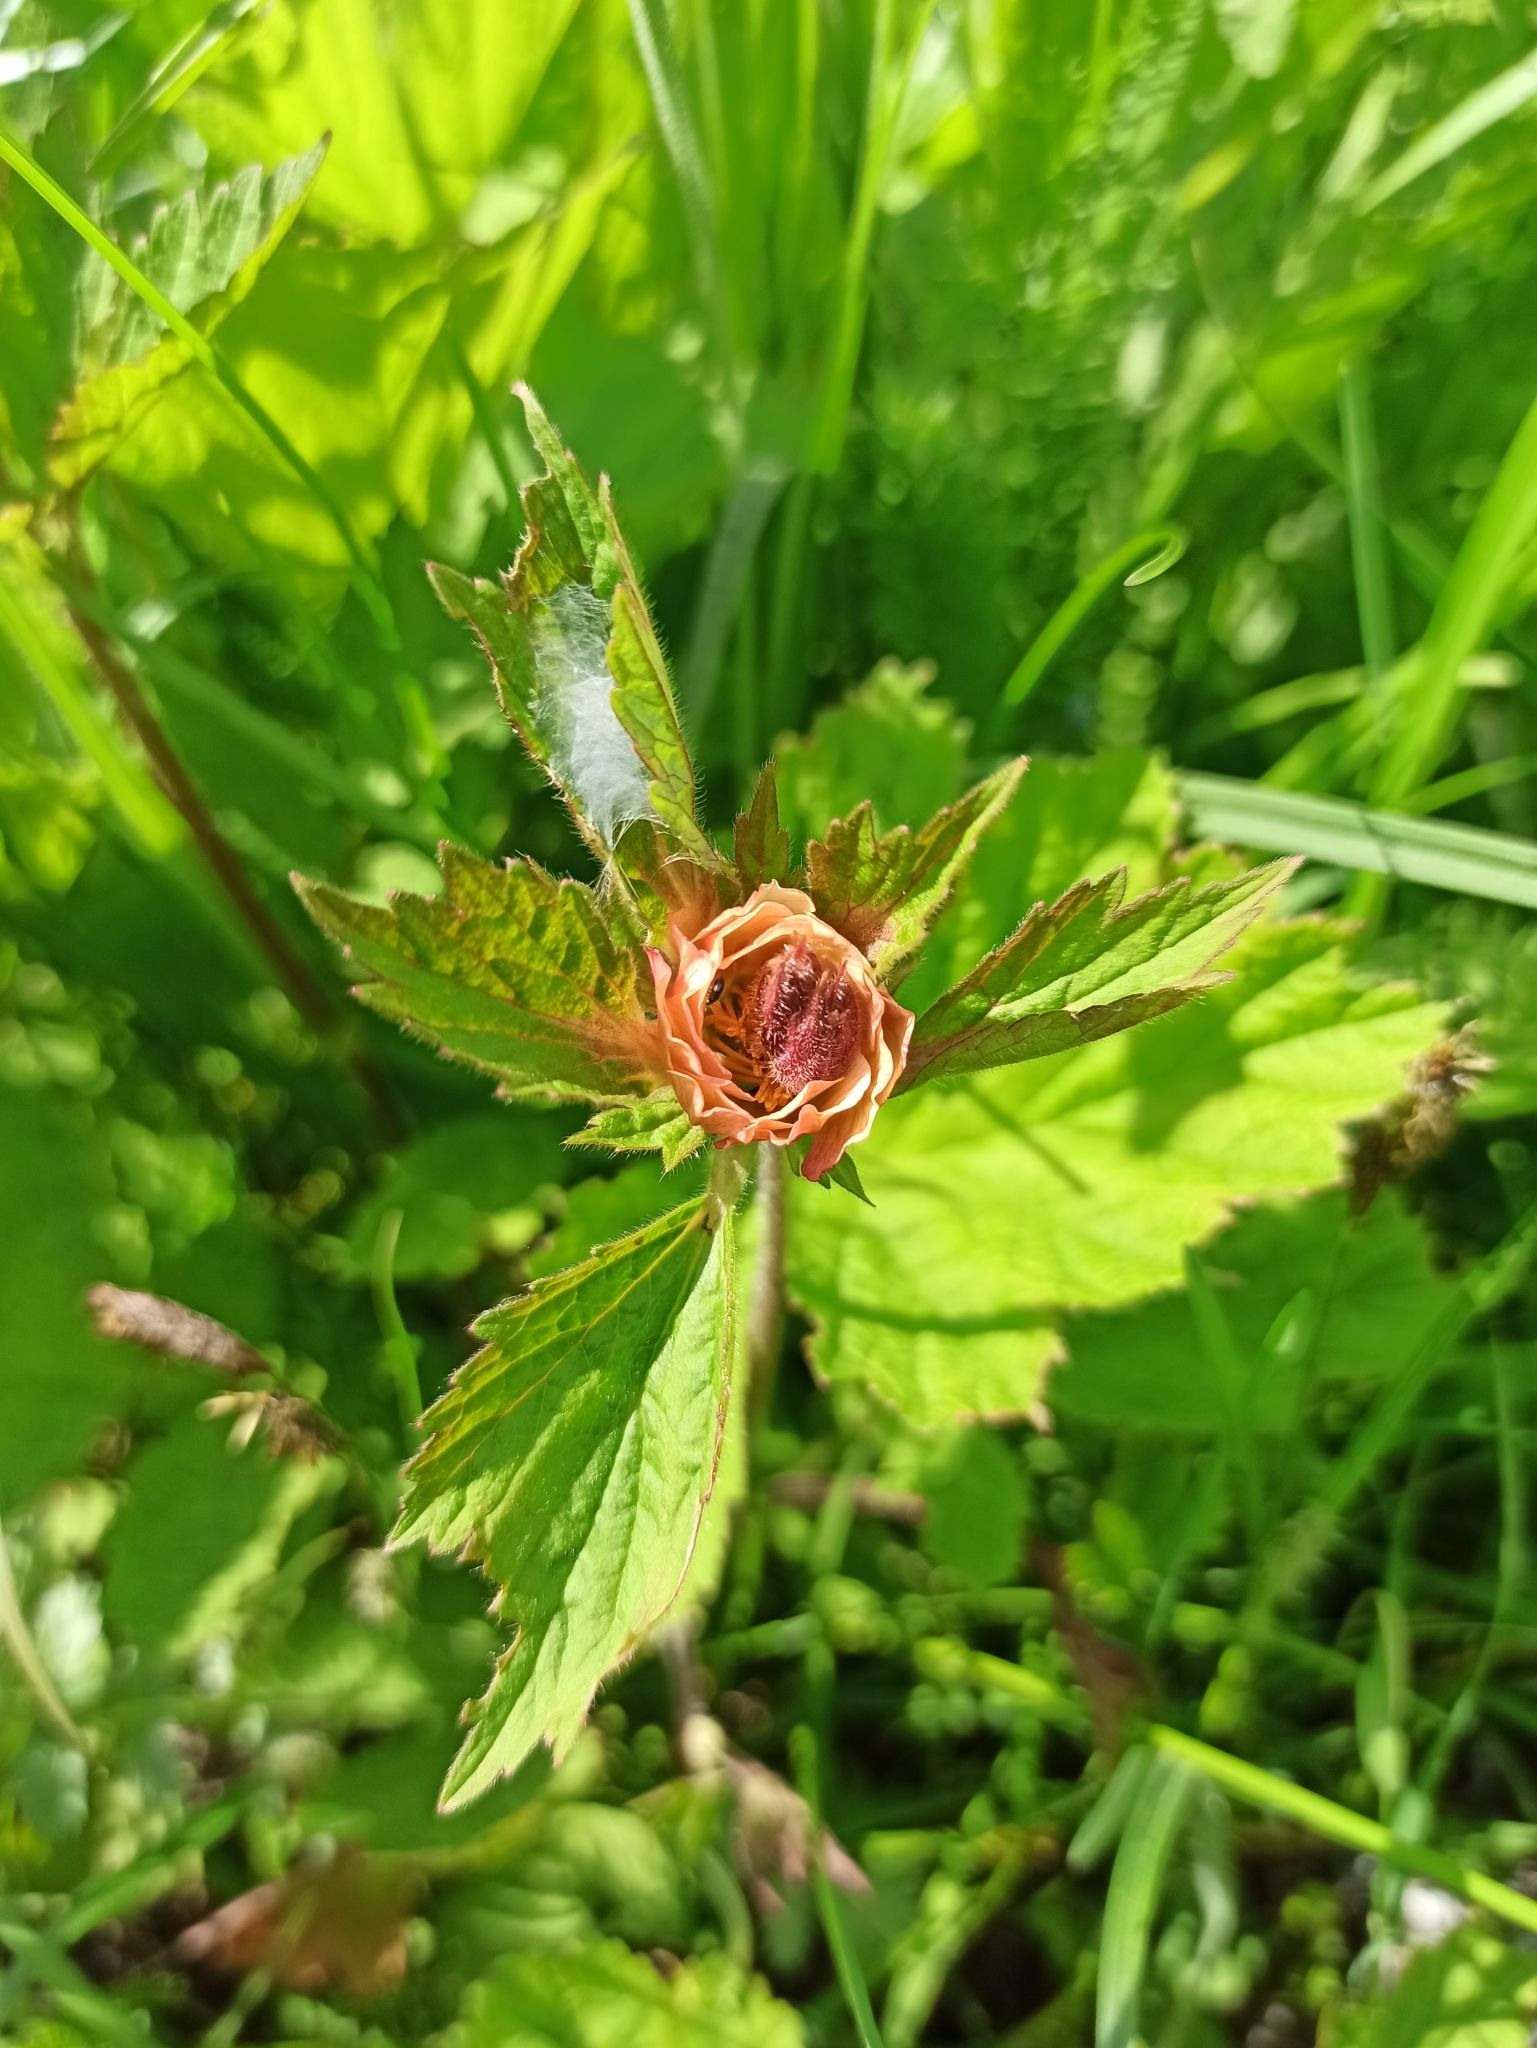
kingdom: Plantae
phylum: Tracheophyta
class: Magnoliopsida
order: Rosales
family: Rosaceae
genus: Geum
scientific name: Geum rivale
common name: Water avens
